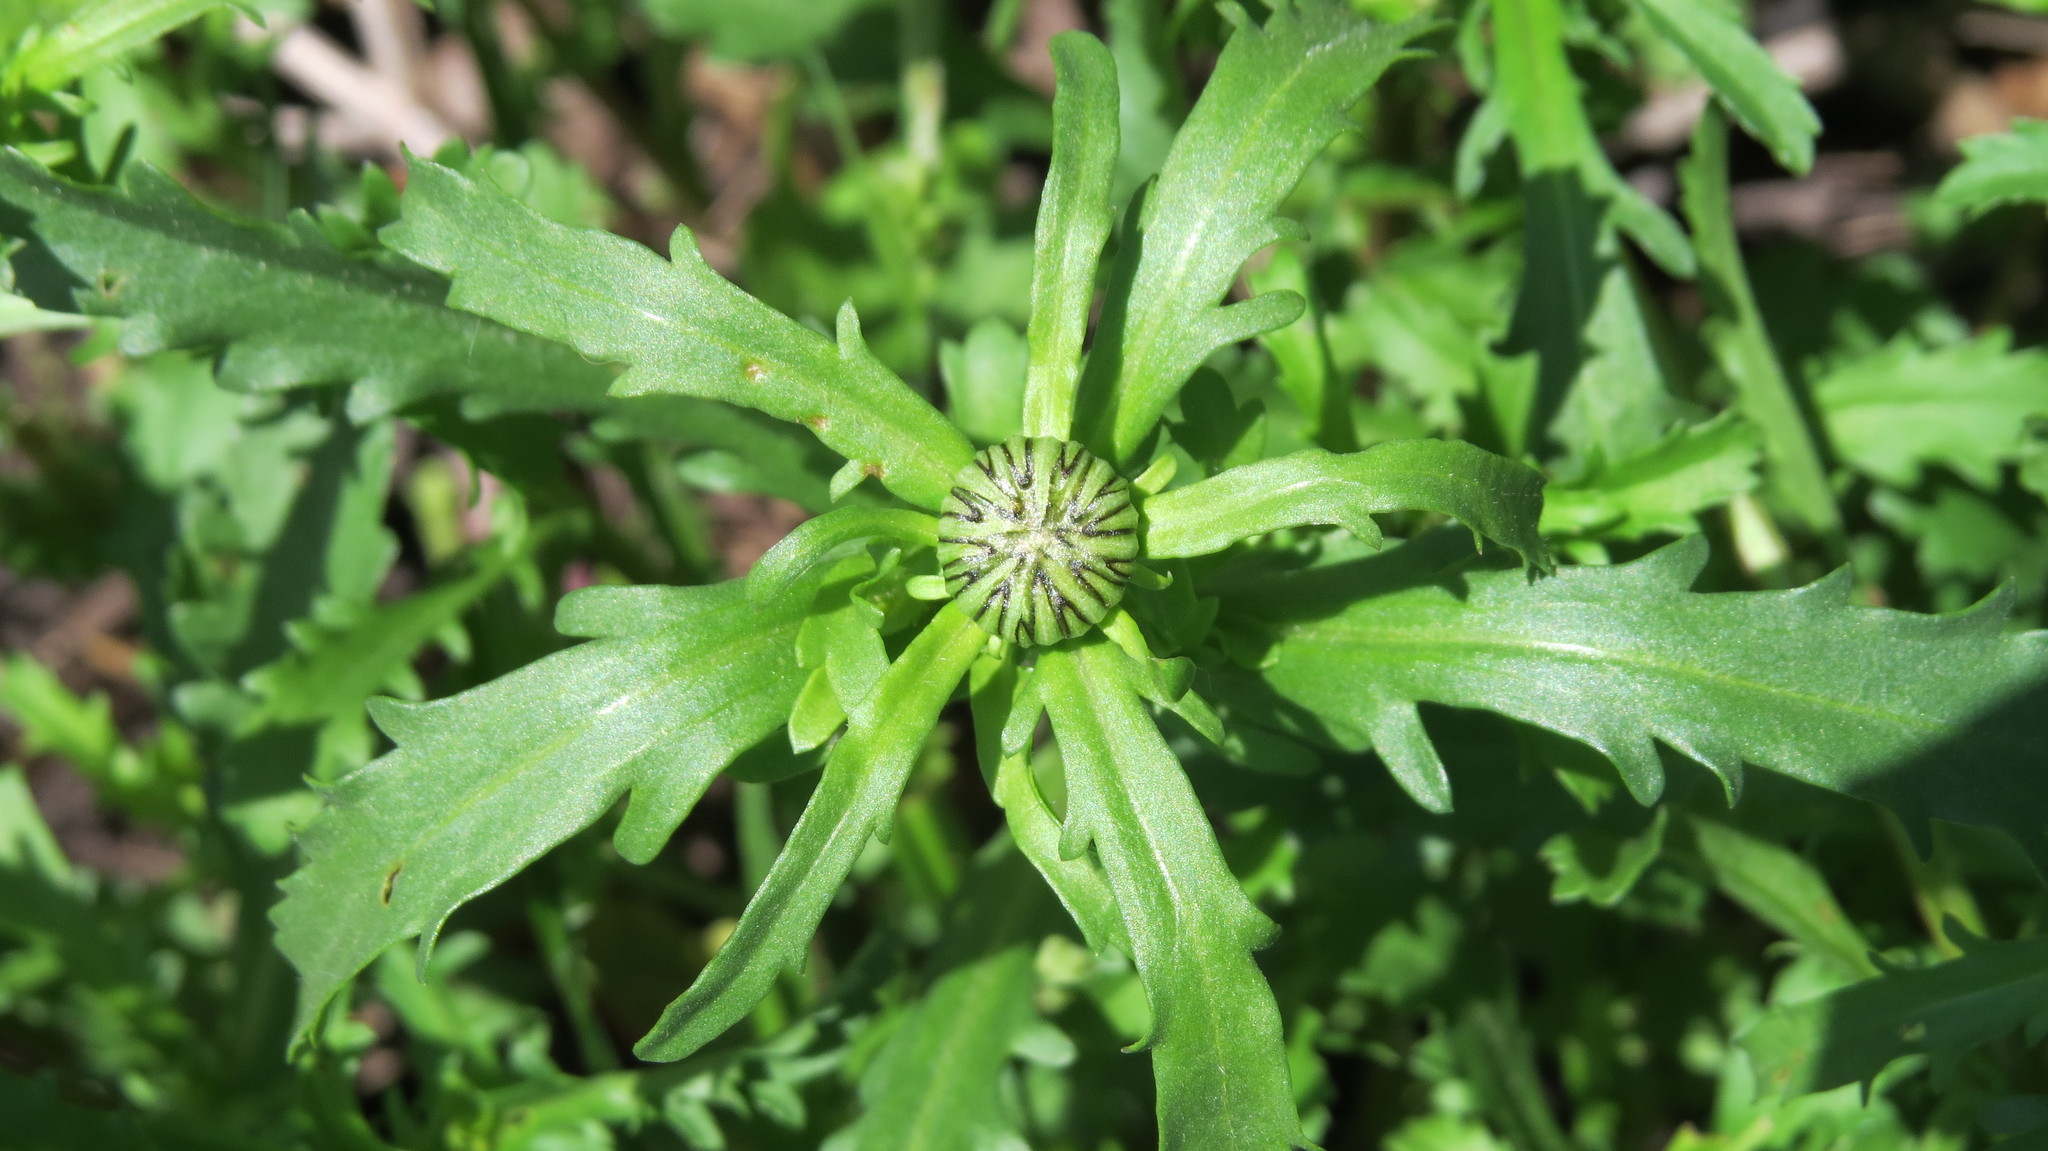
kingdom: Plantae
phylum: Tracheophyta
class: Magnoliopsida
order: Asterales
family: Asteraceae
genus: Leucanthemum
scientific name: Leucanthemum vulgare
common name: Oxeye daisy
